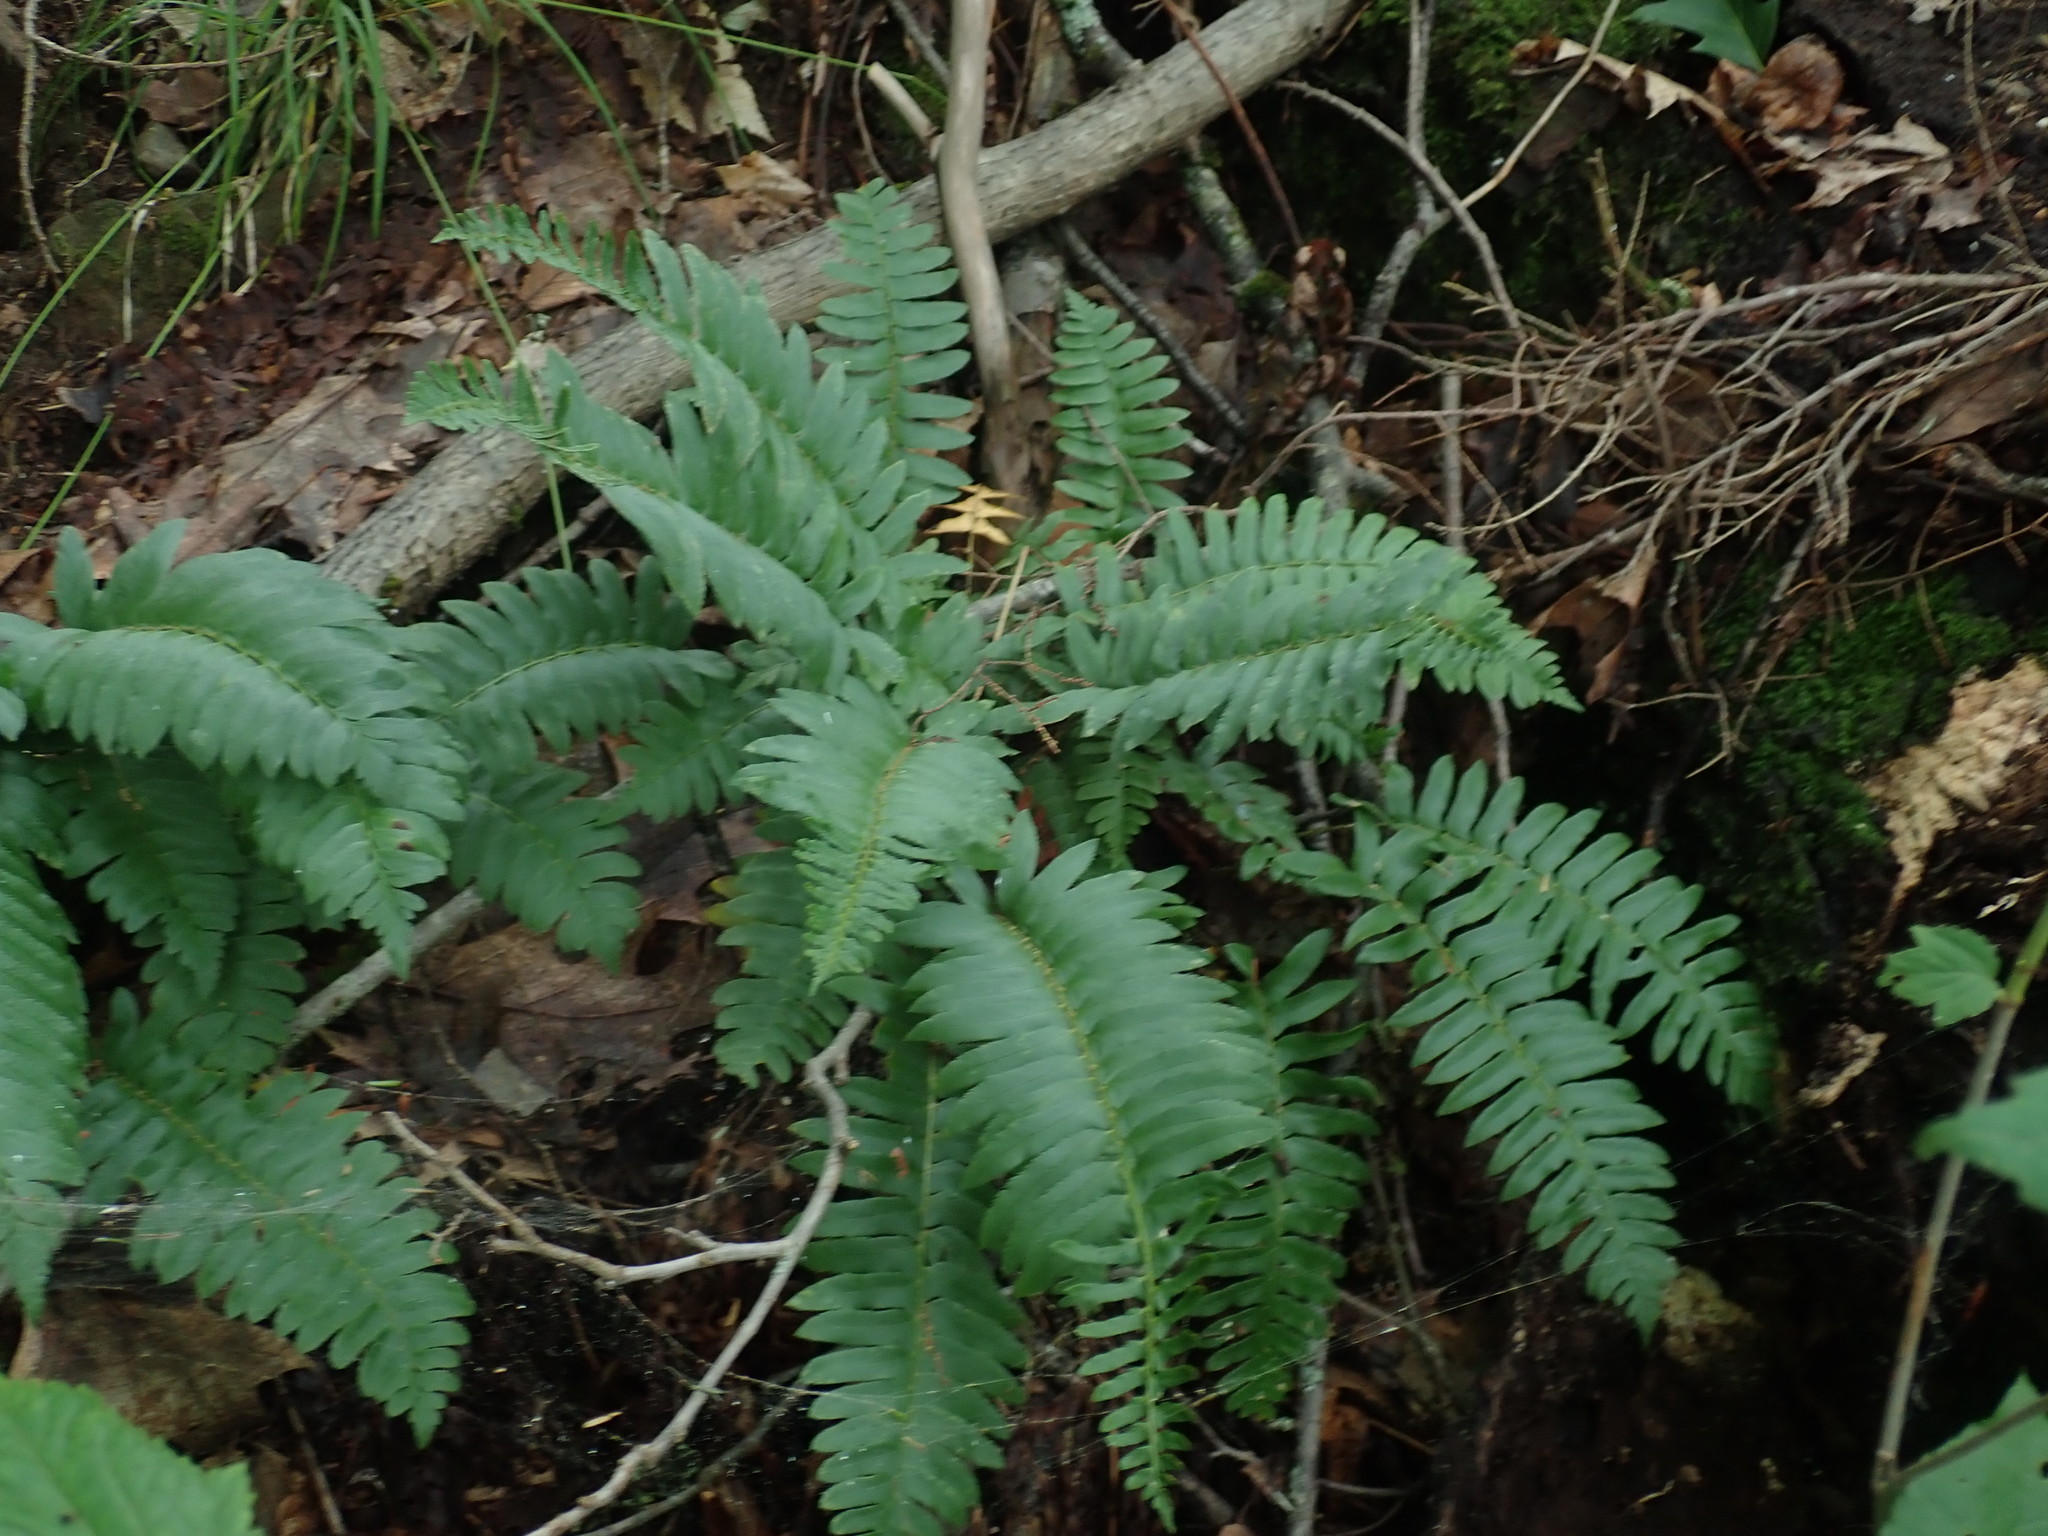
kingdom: Plantae
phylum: Tracheophyta
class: Polypodiopsida
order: Polypodiales
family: Dryopteridaceae
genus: Polystichum
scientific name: Polystichum acrostichoides
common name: Christmas fern
